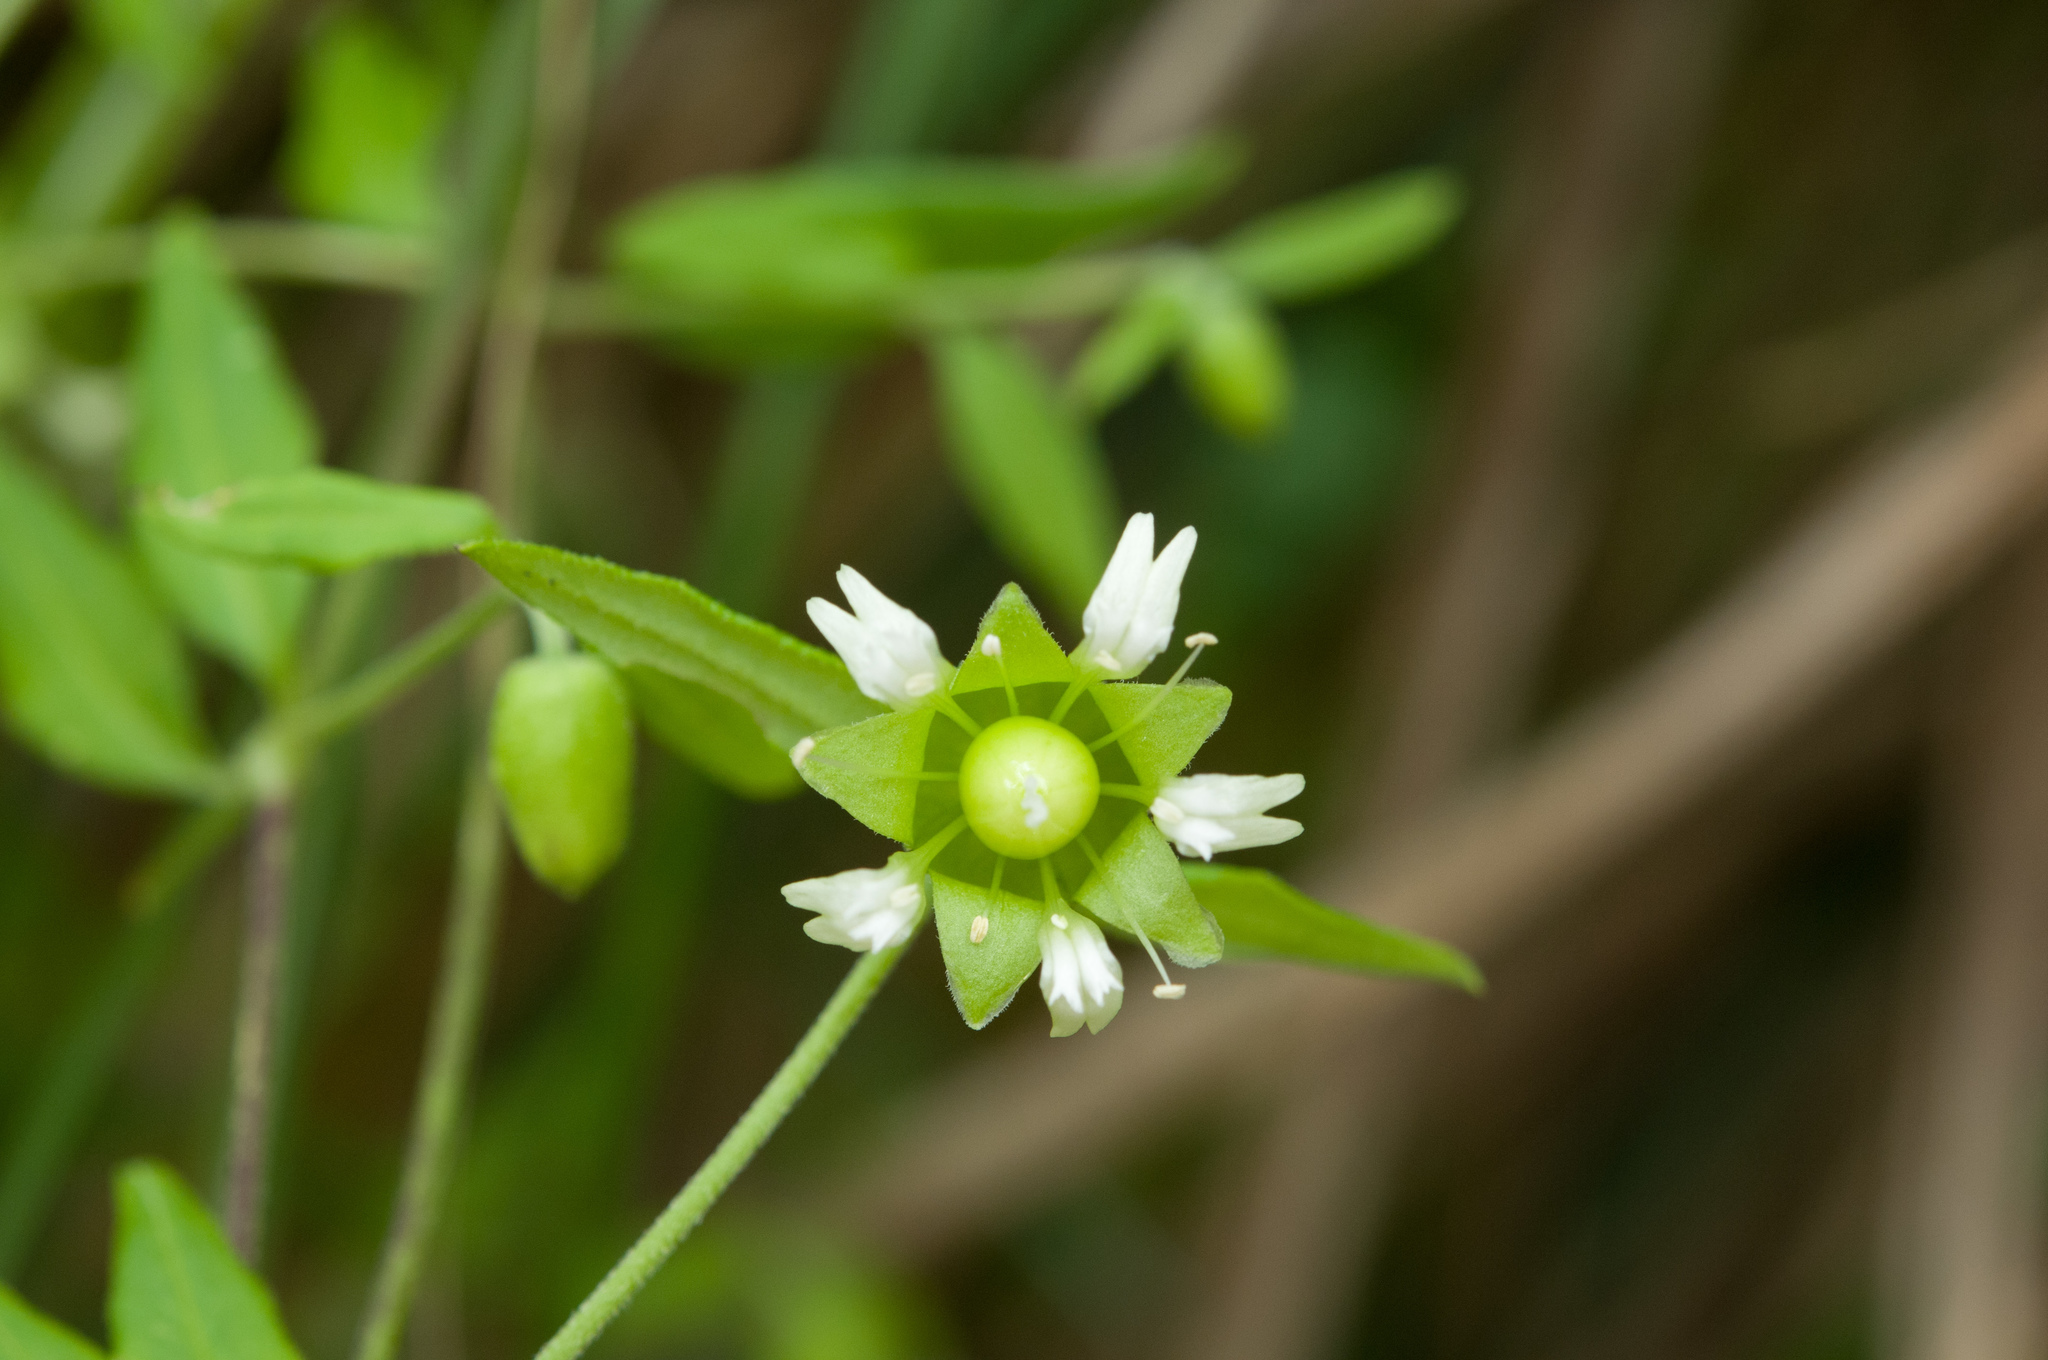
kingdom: Plantae
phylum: Tracheophyta
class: Magnoliopsida
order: Caryophyllales
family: Caryophyllaceae
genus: Silene
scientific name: Silene baccifera
